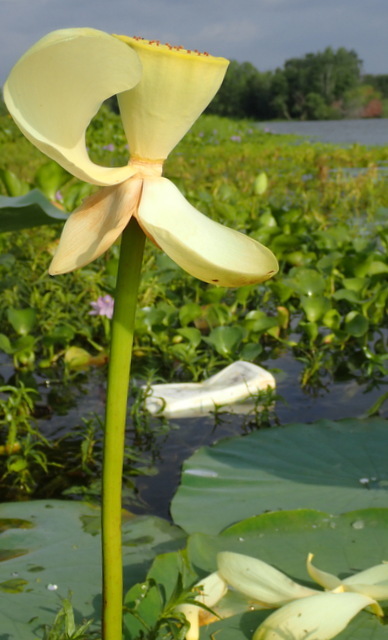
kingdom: Plantae
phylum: Tracheophyta
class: Magnoliopsida
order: Proteales
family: Nelumbonaceae
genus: Nelumbo
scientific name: Nelumbo lutea
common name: American lotus
